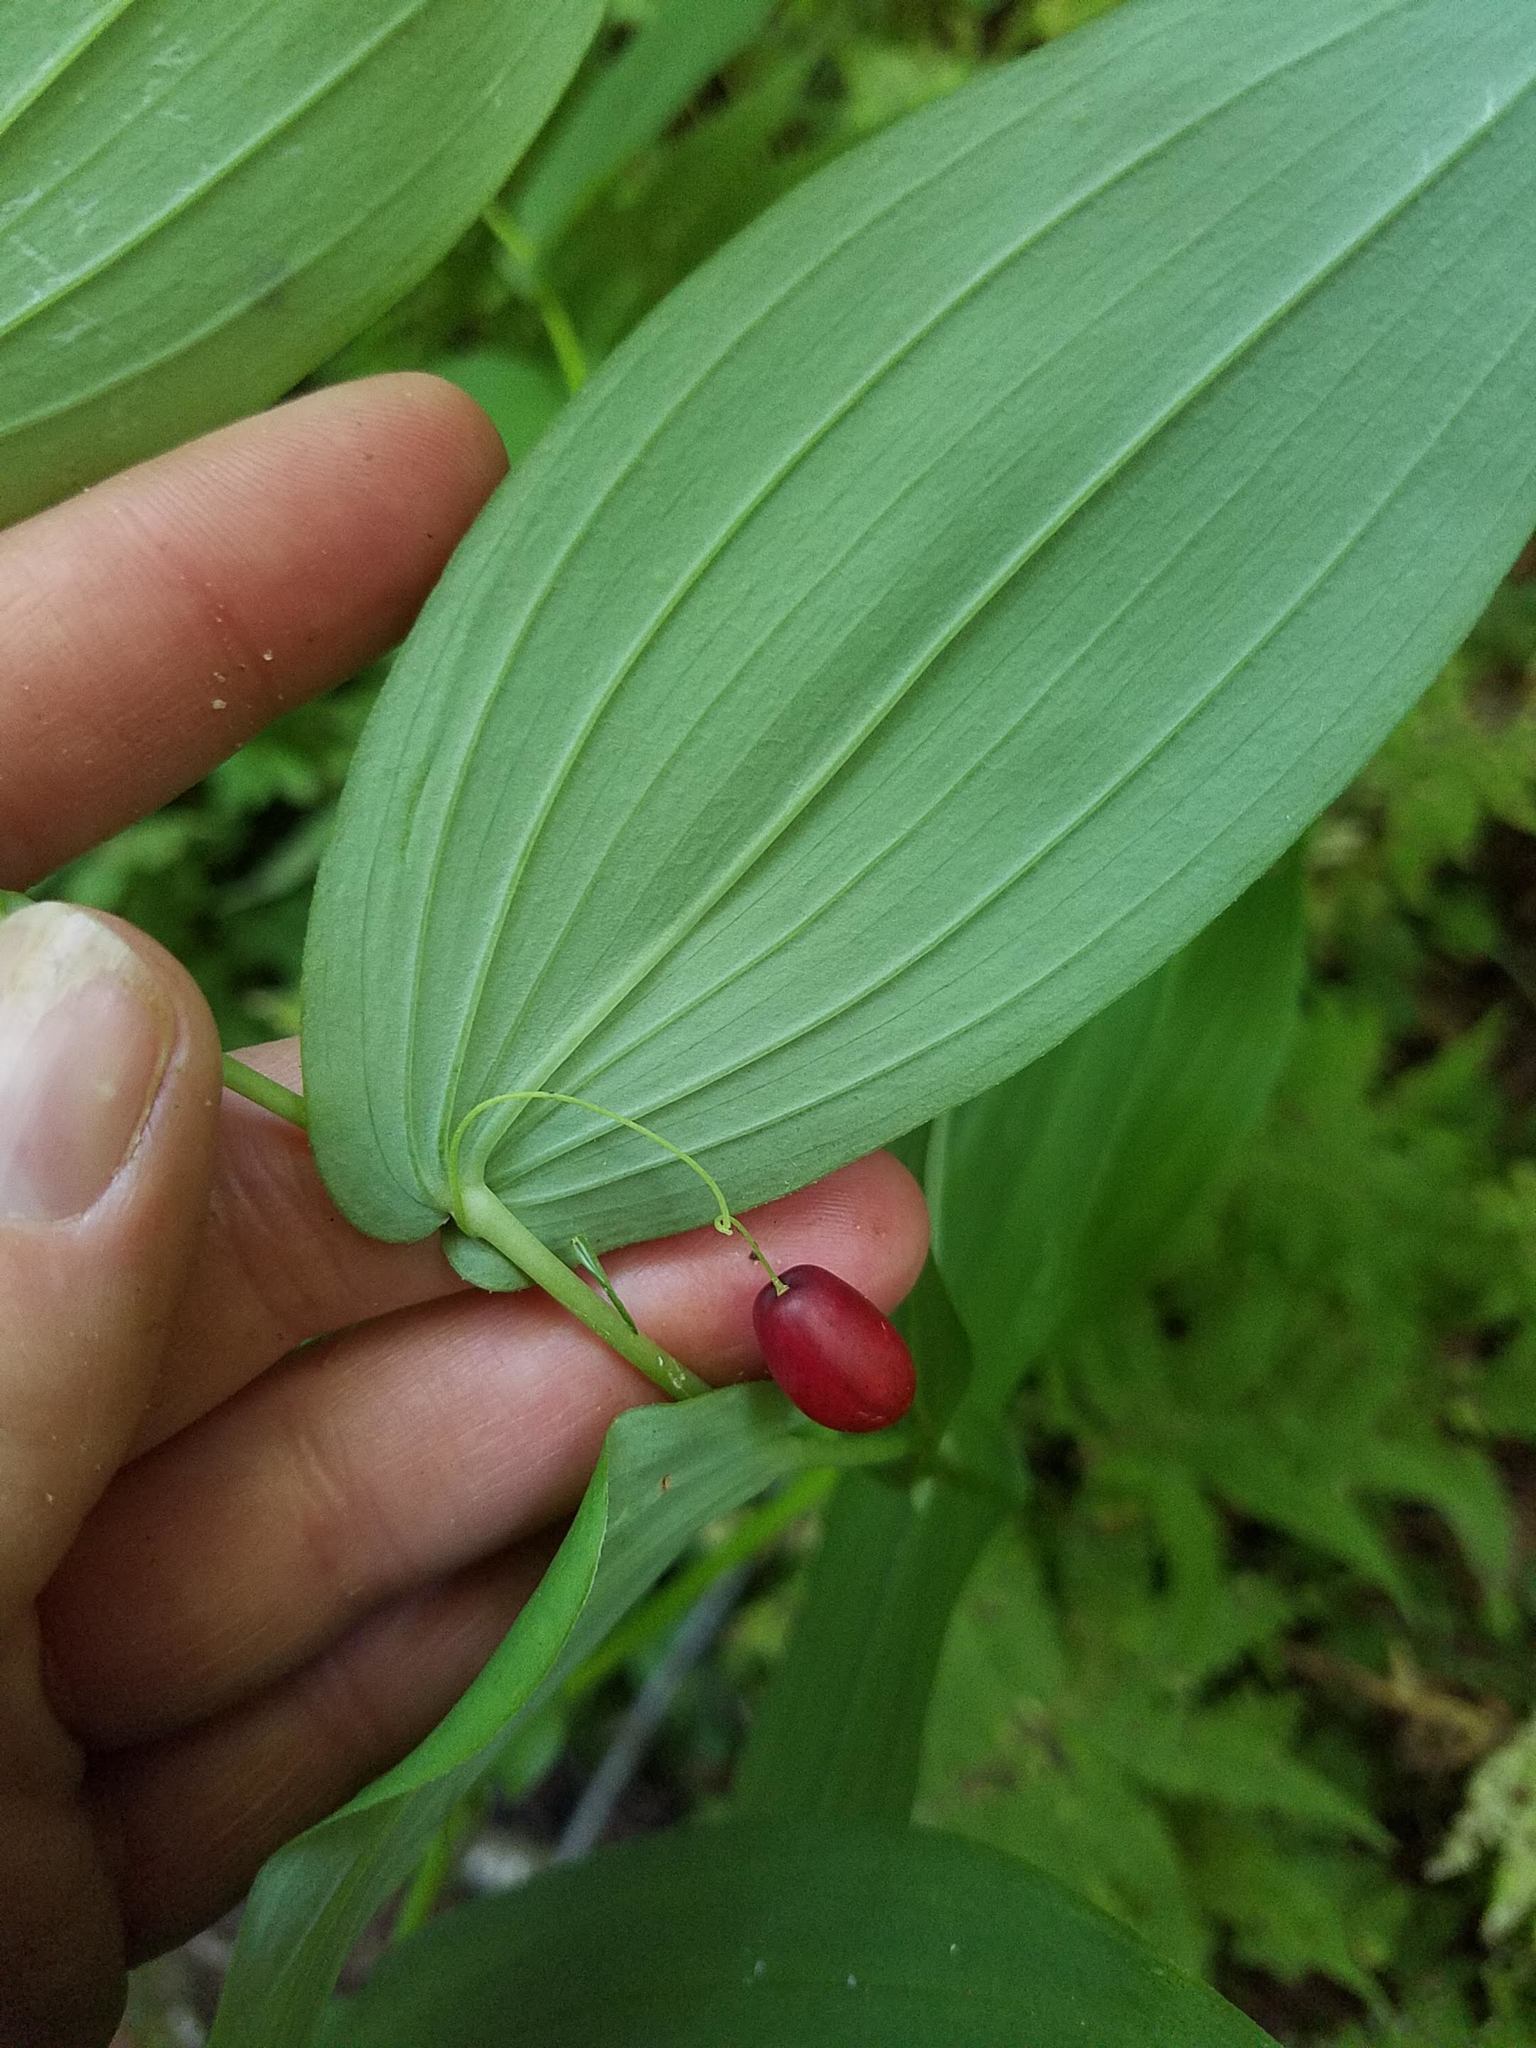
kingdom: Plantae
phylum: Tracheophyta
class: Liliopsida
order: Liliales
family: Liliaceae
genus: Streptopus
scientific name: Streptopus amplexifolius
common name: Clasp twisted stalk
